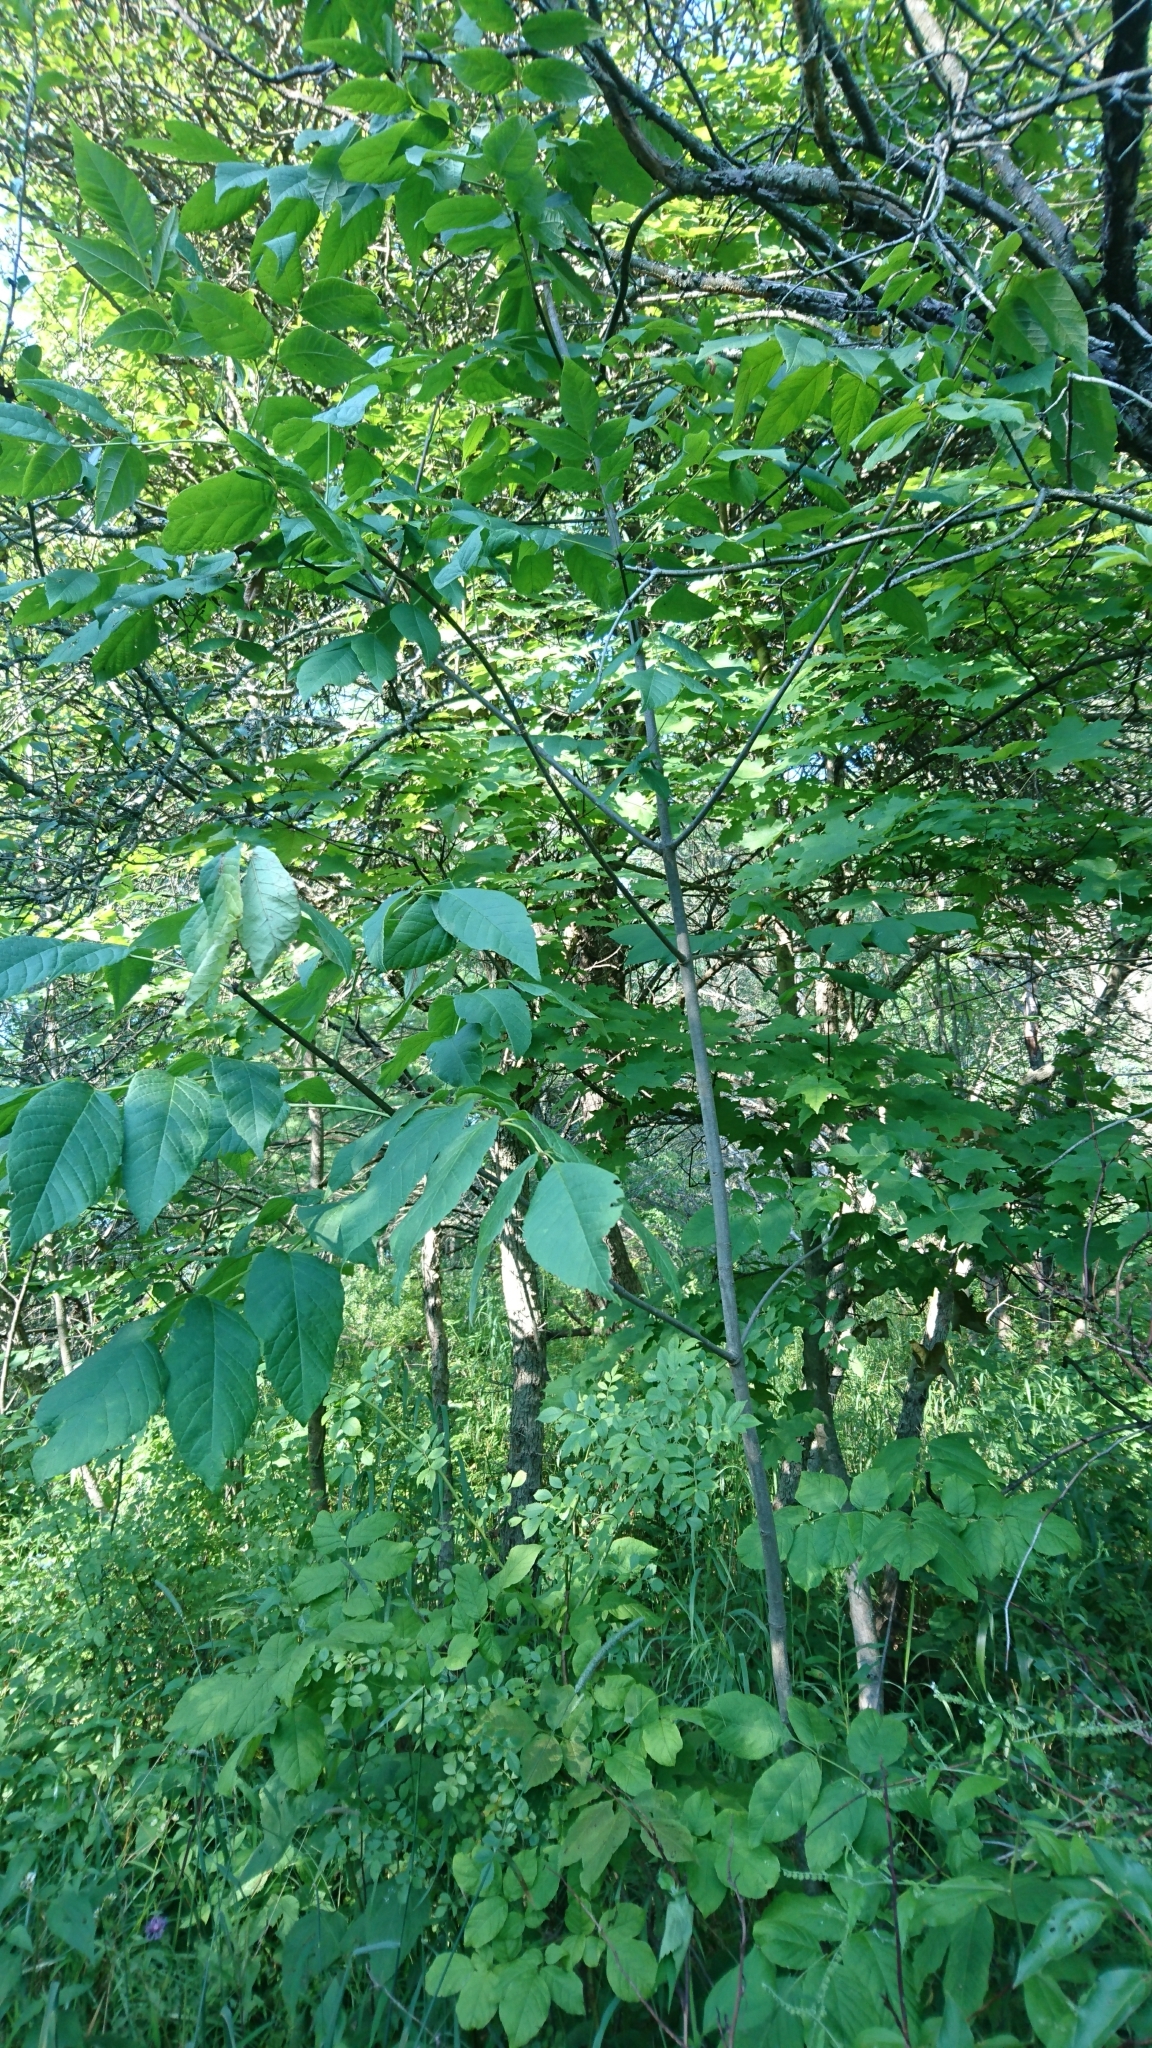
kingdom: Plantae
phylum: Tracheophyta
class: Magnoliopsida
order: Lamiales
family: Oleaceae
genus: Fraxinus
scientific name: Fraxinus americana
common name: White ash
